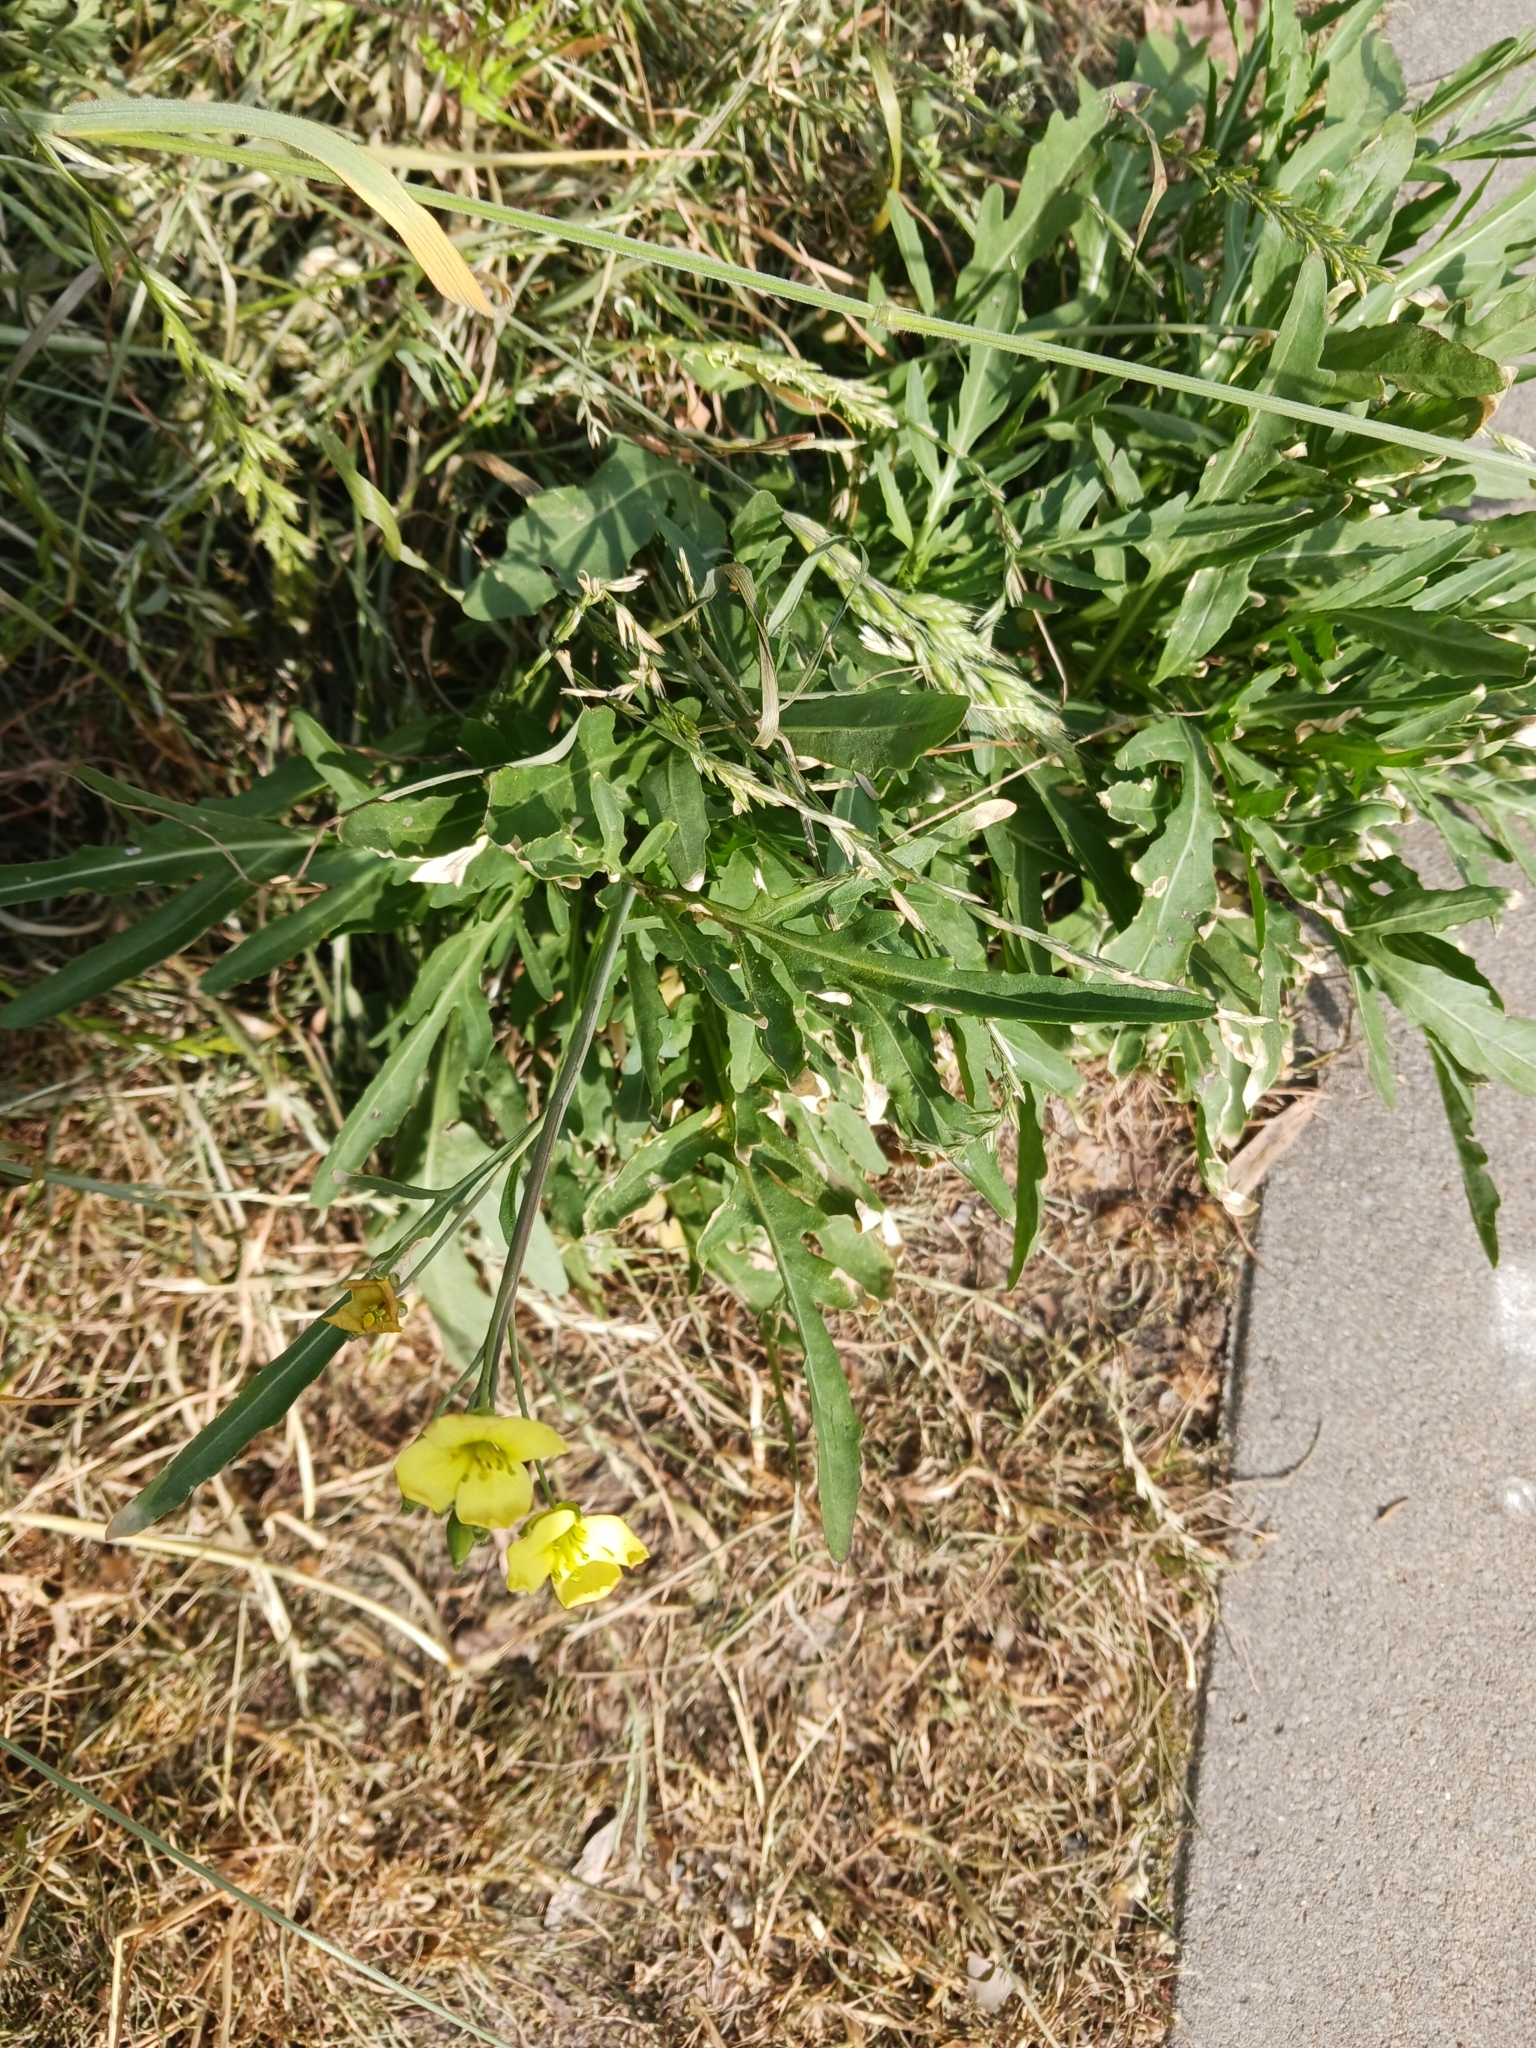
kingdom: Plantae
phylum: Tracheophyta
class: Magnoliopsida
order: Brassicales
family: Brassicaceae
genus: Diplotaxis
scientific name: Diplotaxis tenuifolia
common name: Perennial wall-rocket
